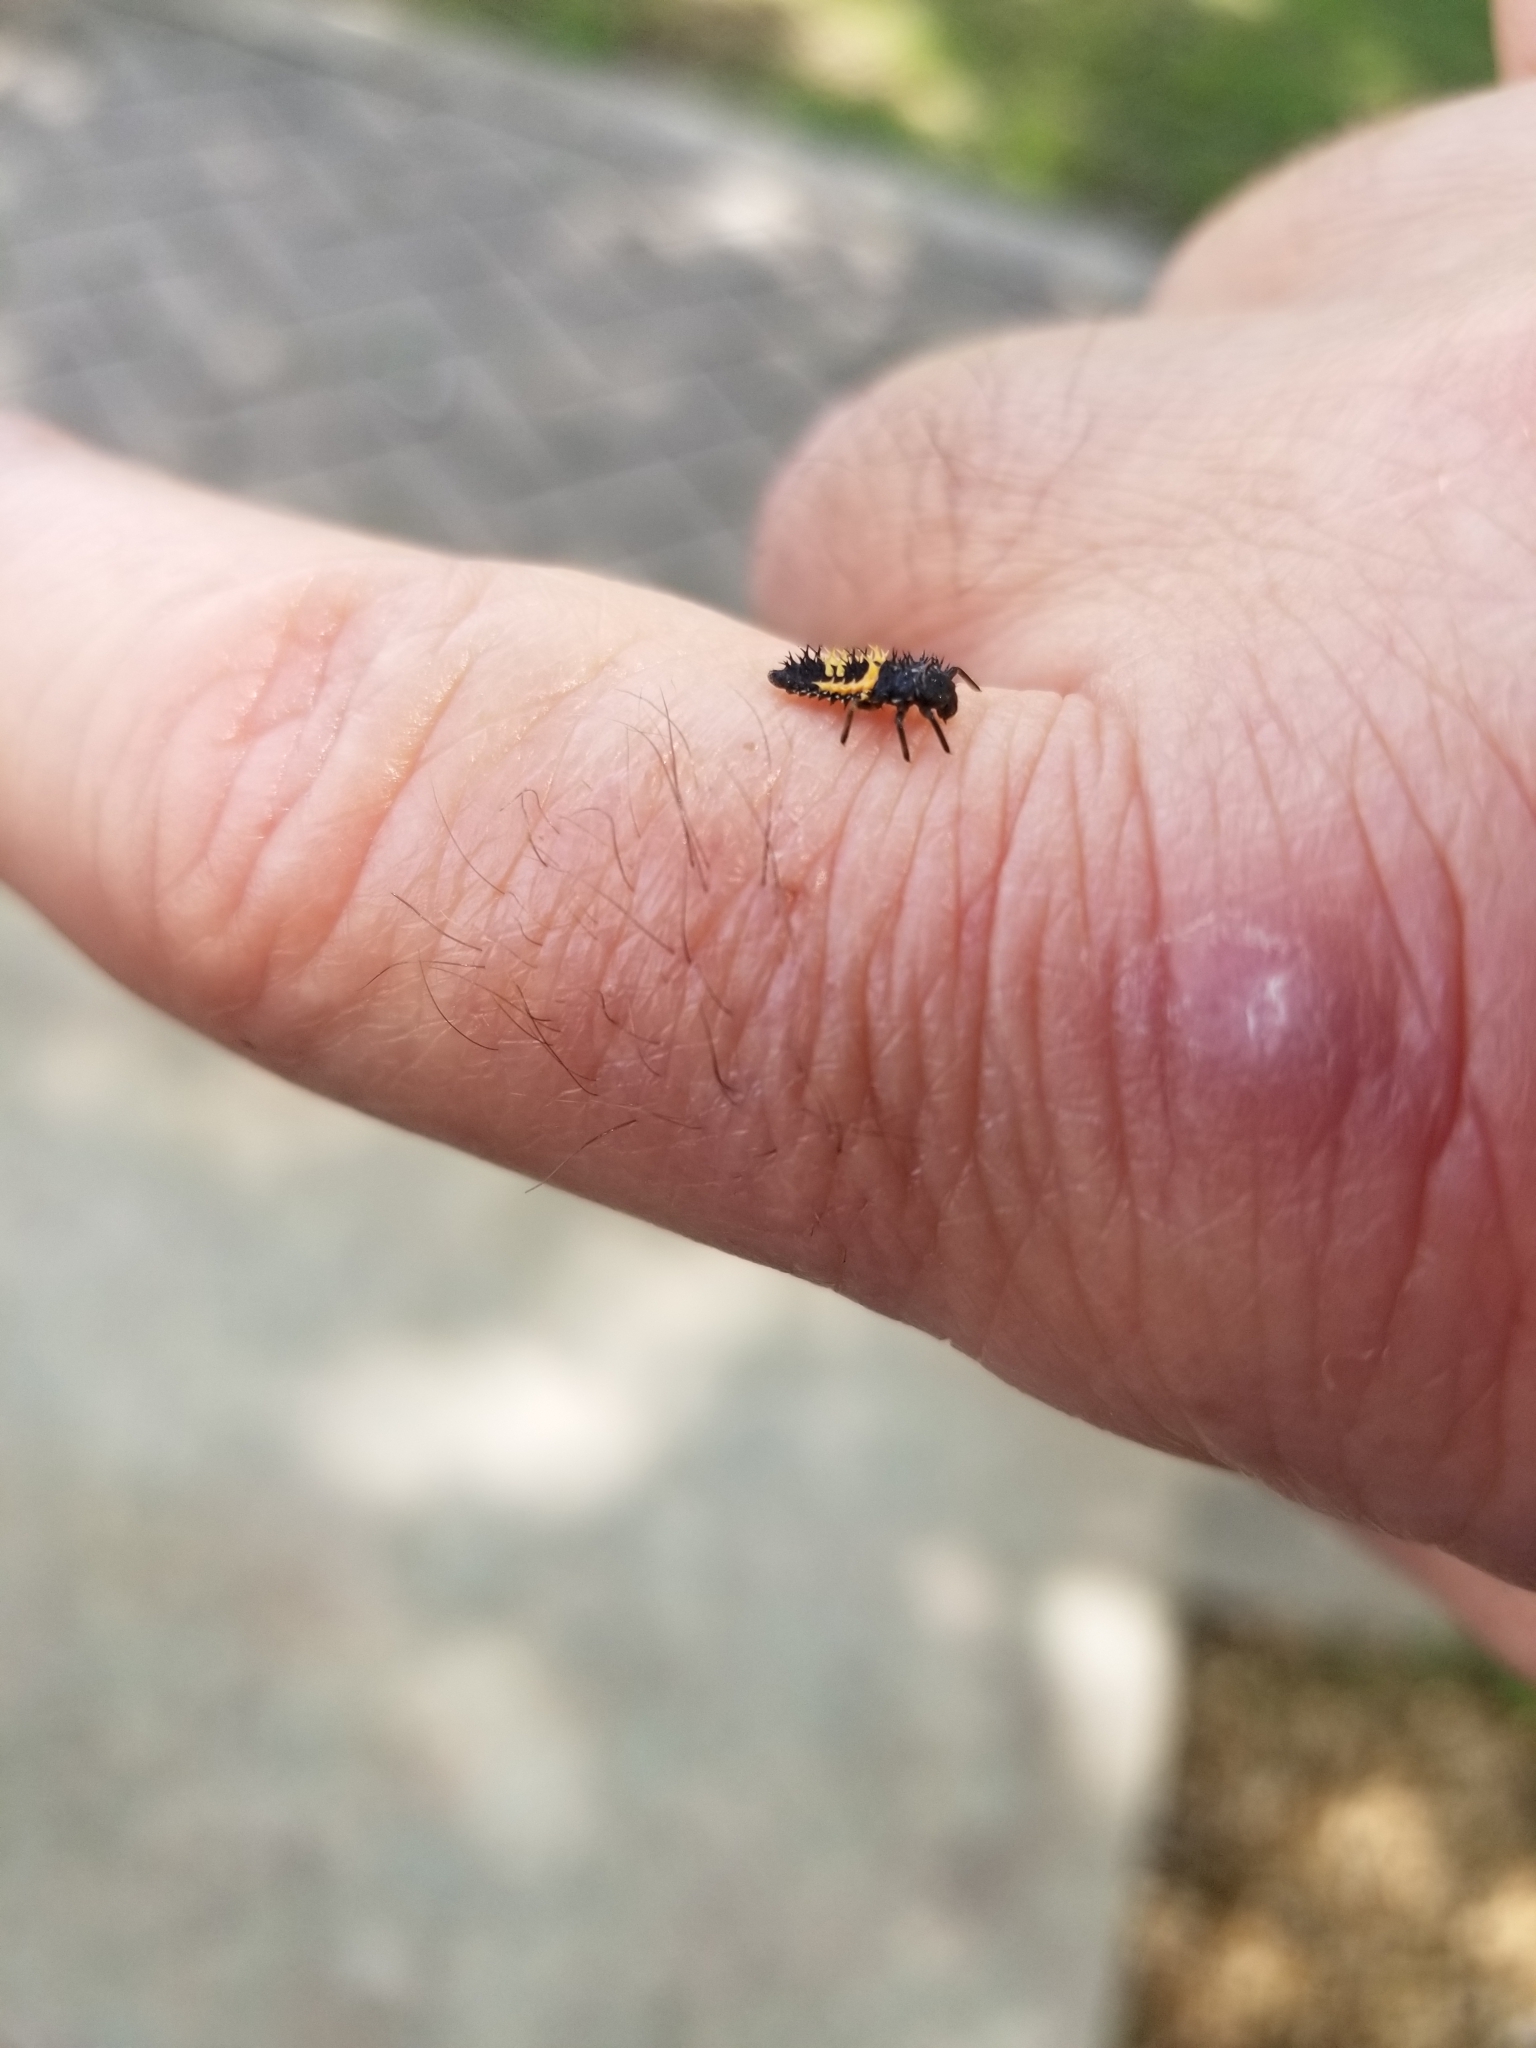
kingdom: Animalia
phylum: Arthropoda
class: Insecta
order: Coleoptera
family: Coccinellidae
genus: Harmonia
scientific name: Harmonia axyridis
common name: Harlequin ladybird
